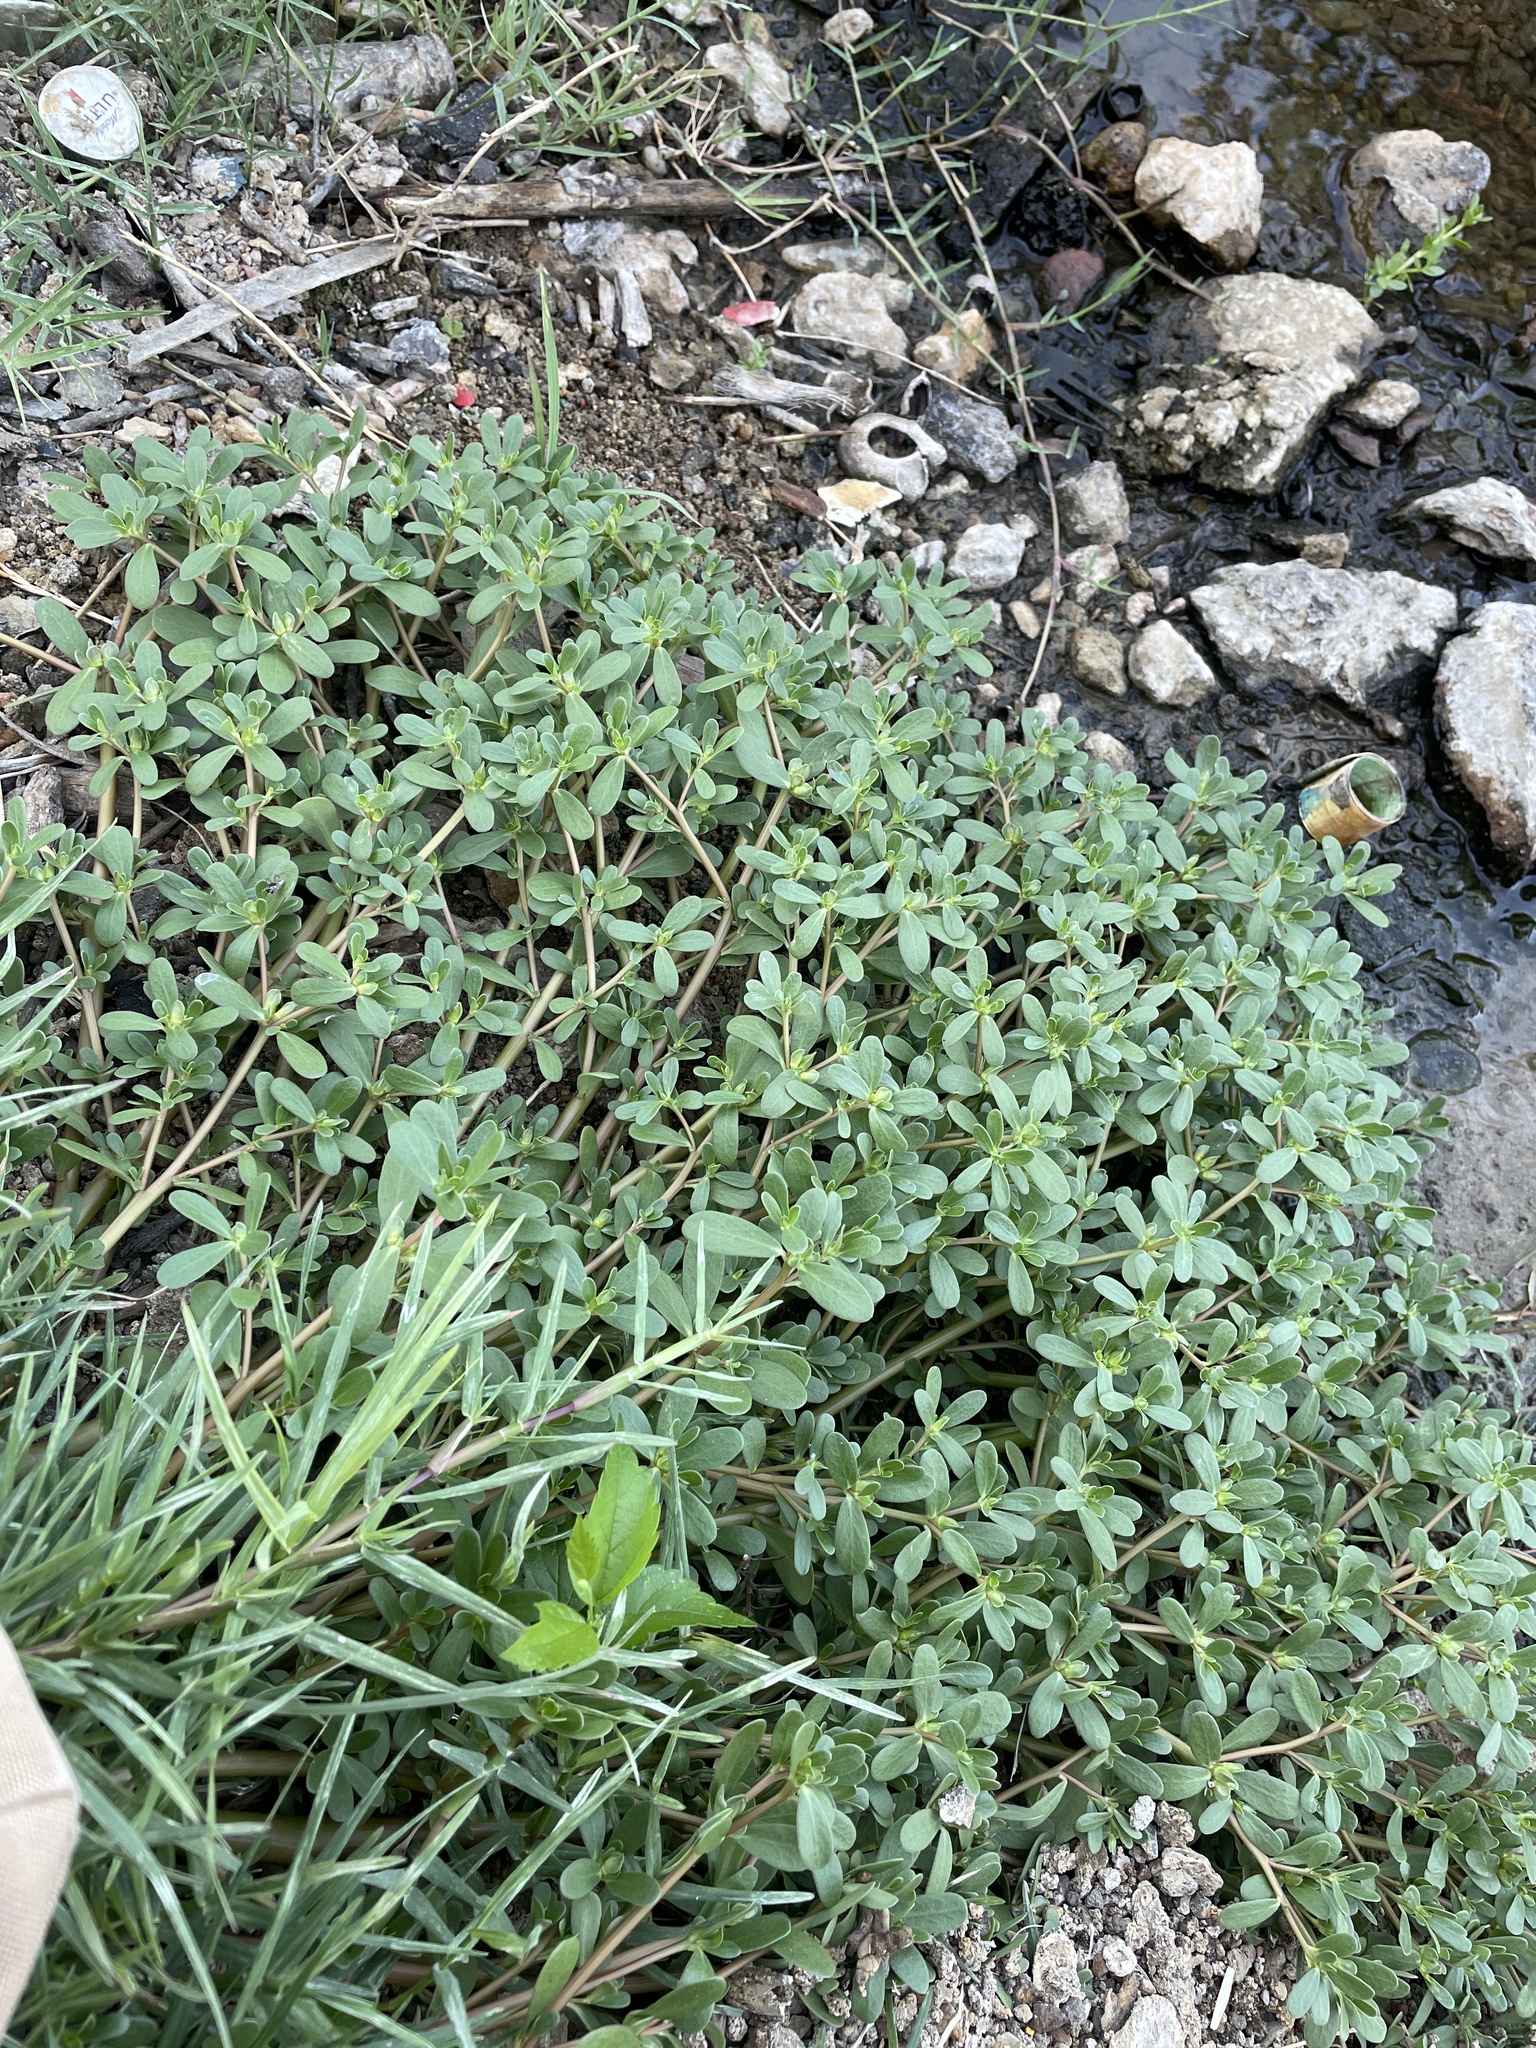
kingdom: Plantae
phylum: Tracheophyta
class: Magnoliopsida
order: Caryophyllales
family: Portulacaceae
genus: Portulaca
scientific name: Portulaca oleracea
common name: Common purslane
